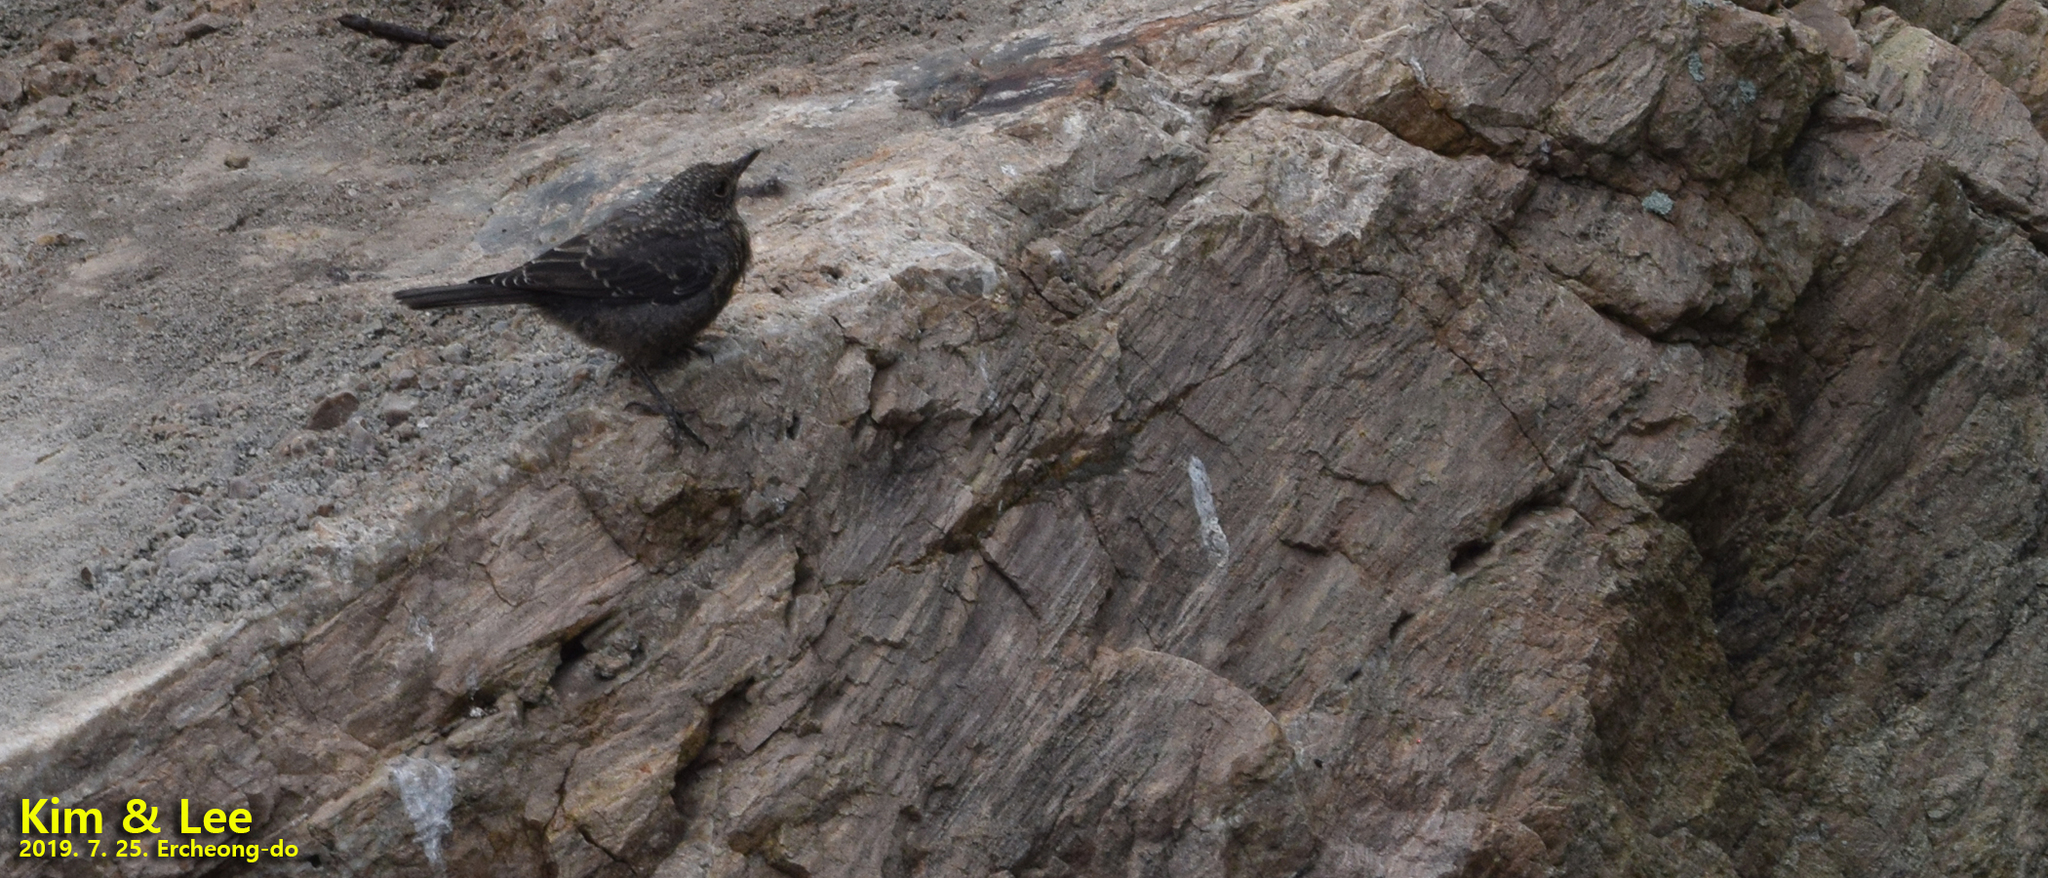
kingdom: Animalia
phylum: Chordata
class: Aves
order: Passeriformes
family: Muscicapidae
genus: Monticola
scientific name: Monticola solitarius
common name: Blue rock thrush
